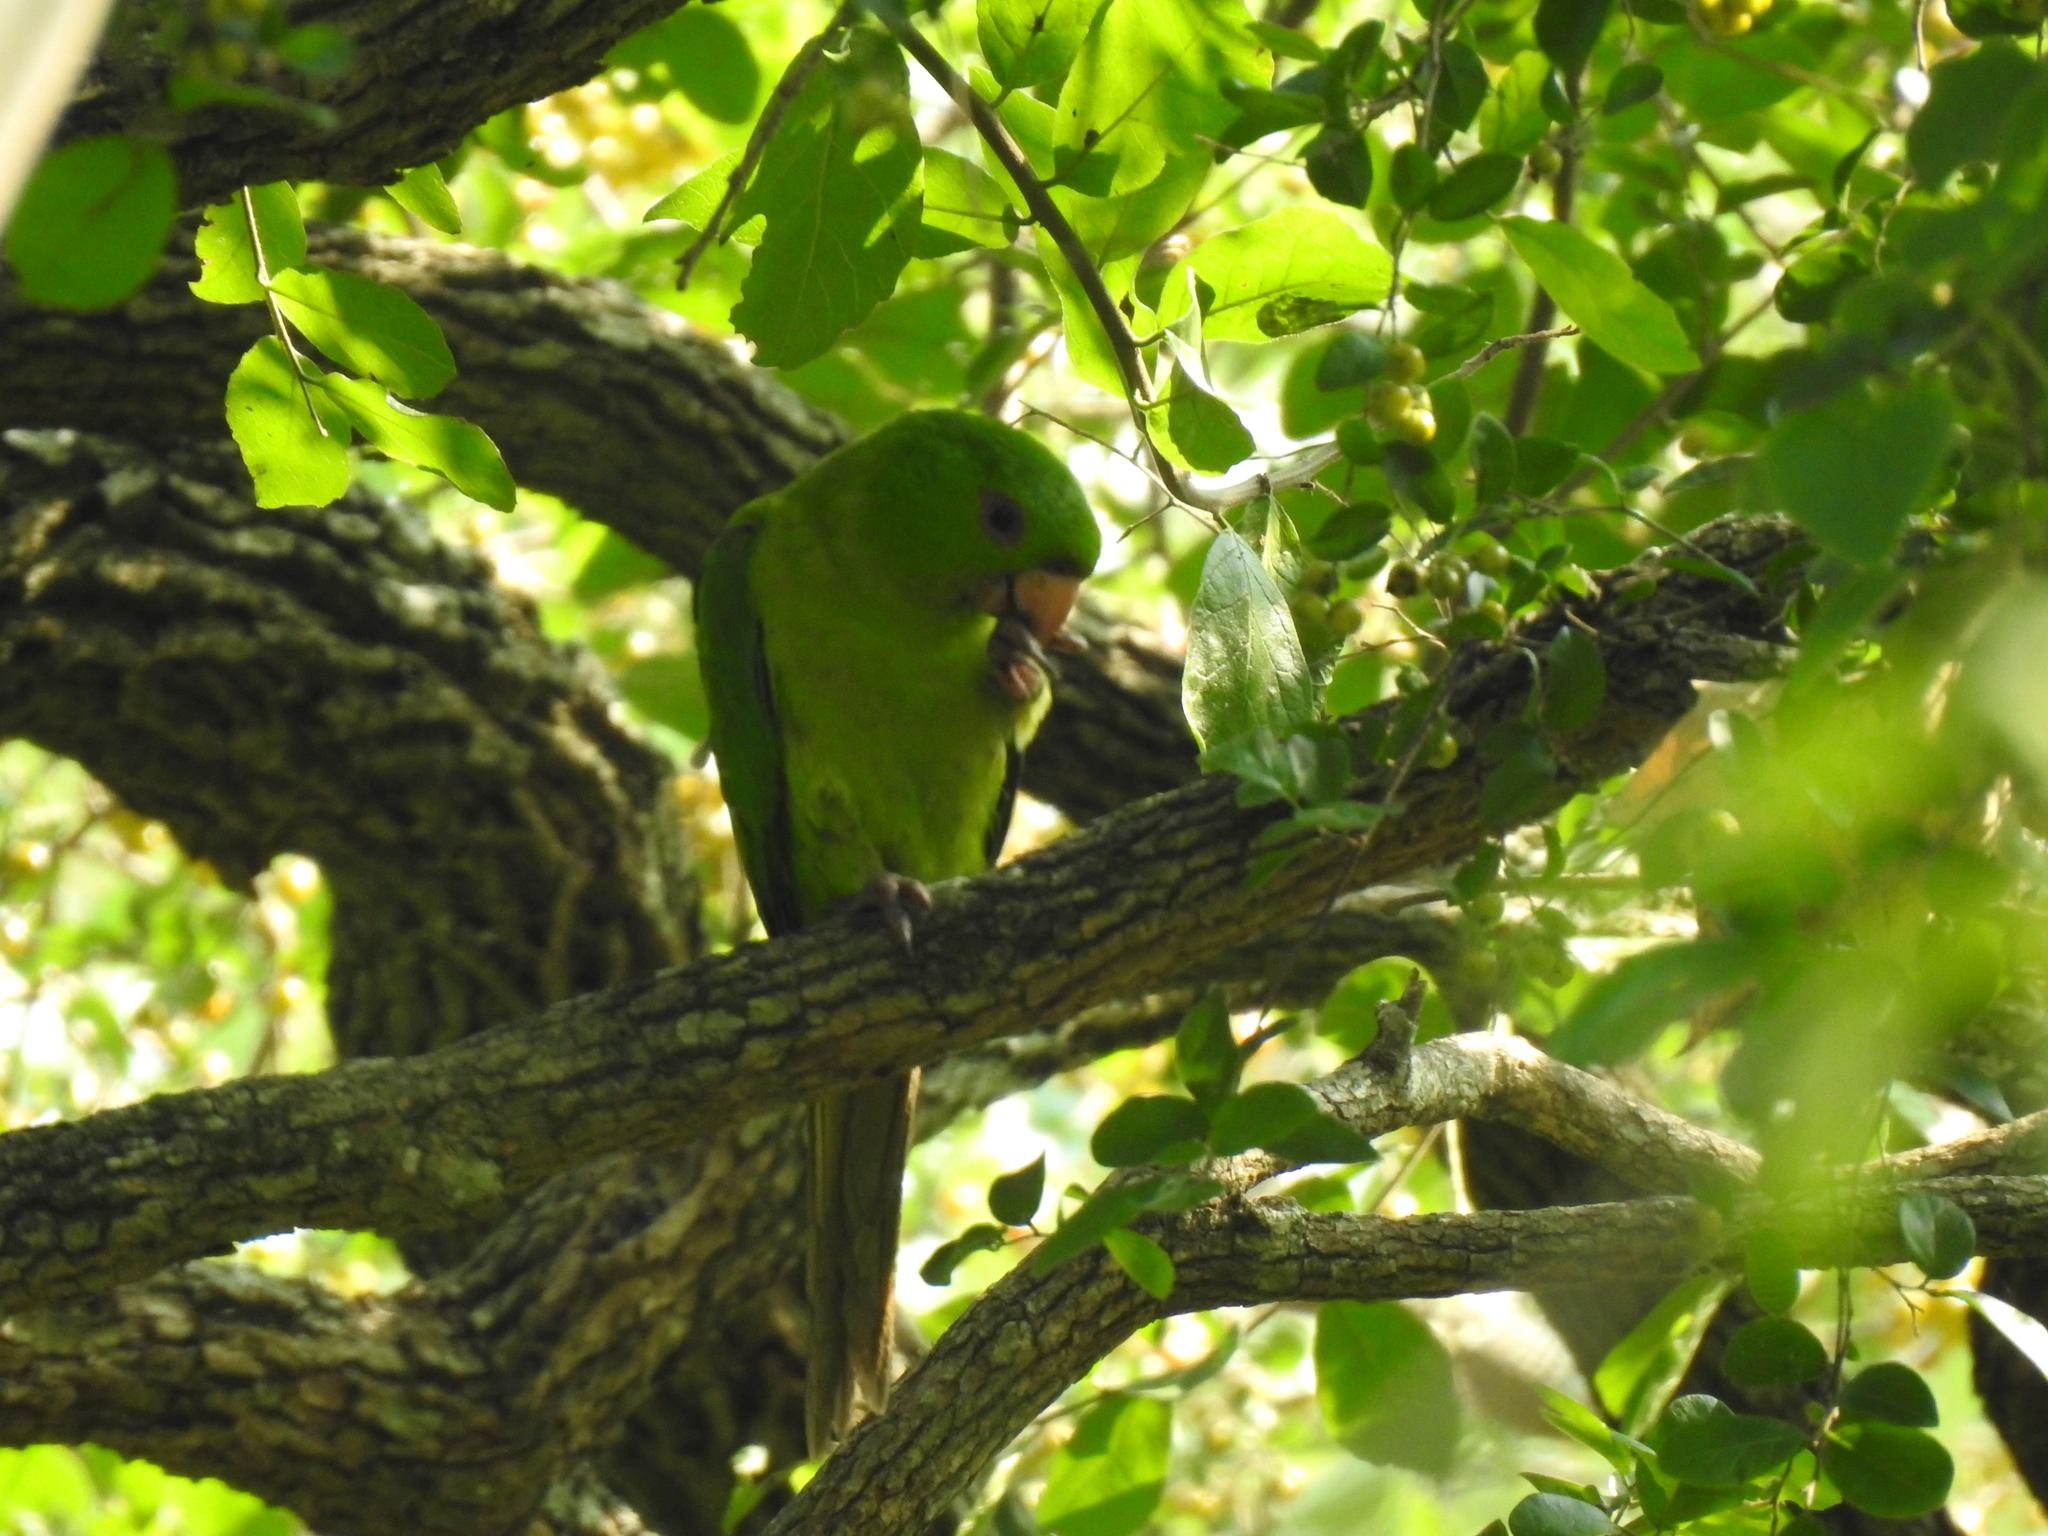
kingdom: Animalia
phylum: Chordata
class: Aves
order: Psittaciformes
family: Psittacidae
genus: Aratinga
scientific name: Aratinga holochlora
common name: Green parakeet
